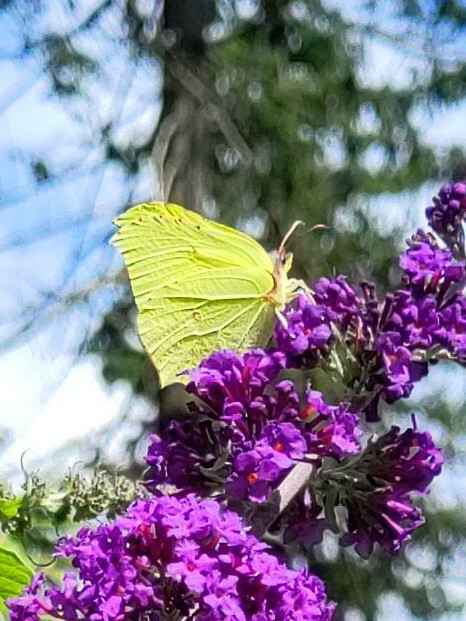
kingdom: Animalia
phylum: Arthropoda
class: Insecta
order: Lepidoptera
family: Pieridae
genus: Gonepteryx
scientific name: Gonepteryx rhamni
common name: Brimstone
